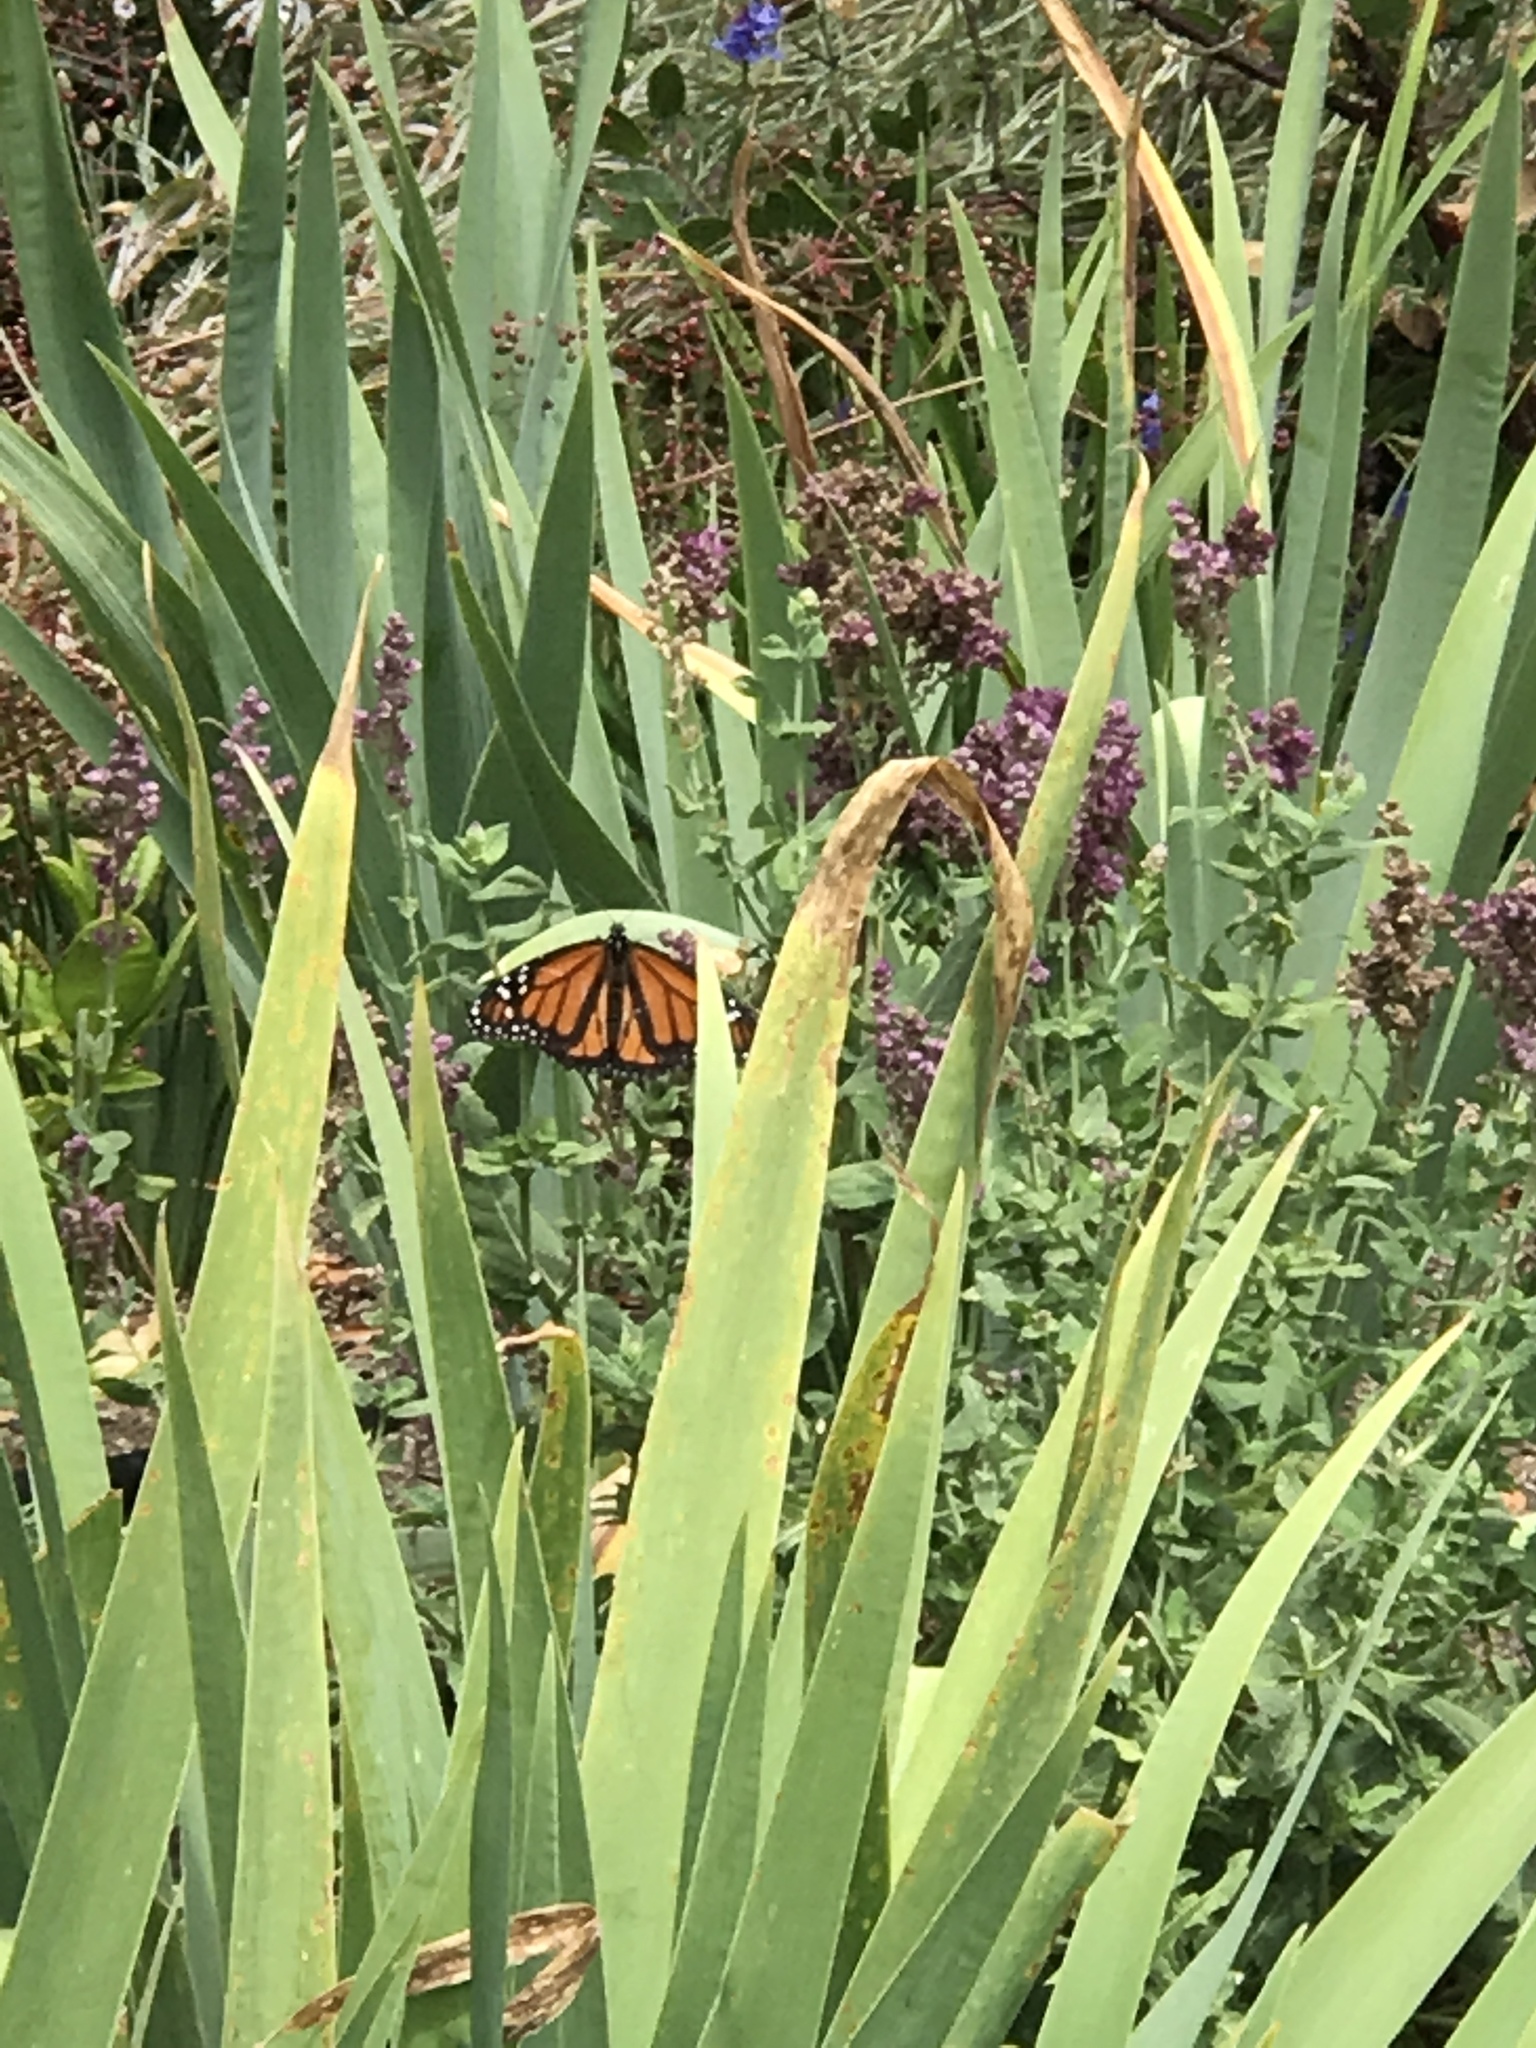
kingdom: Animalia
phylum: Arthropoda
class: Insecta
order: Lepidoptera
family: Nymphalidae
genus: Danaus
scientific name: Danaus plexippus
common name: Monarch
